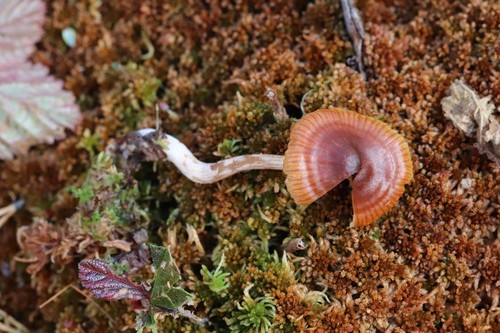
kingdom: Fungi
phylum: Basidiomycota
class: Agaricomycetes
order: Agaricales
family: Cortinariaceae
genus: Cortinarius
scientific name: Cortinarius subfloccopus
